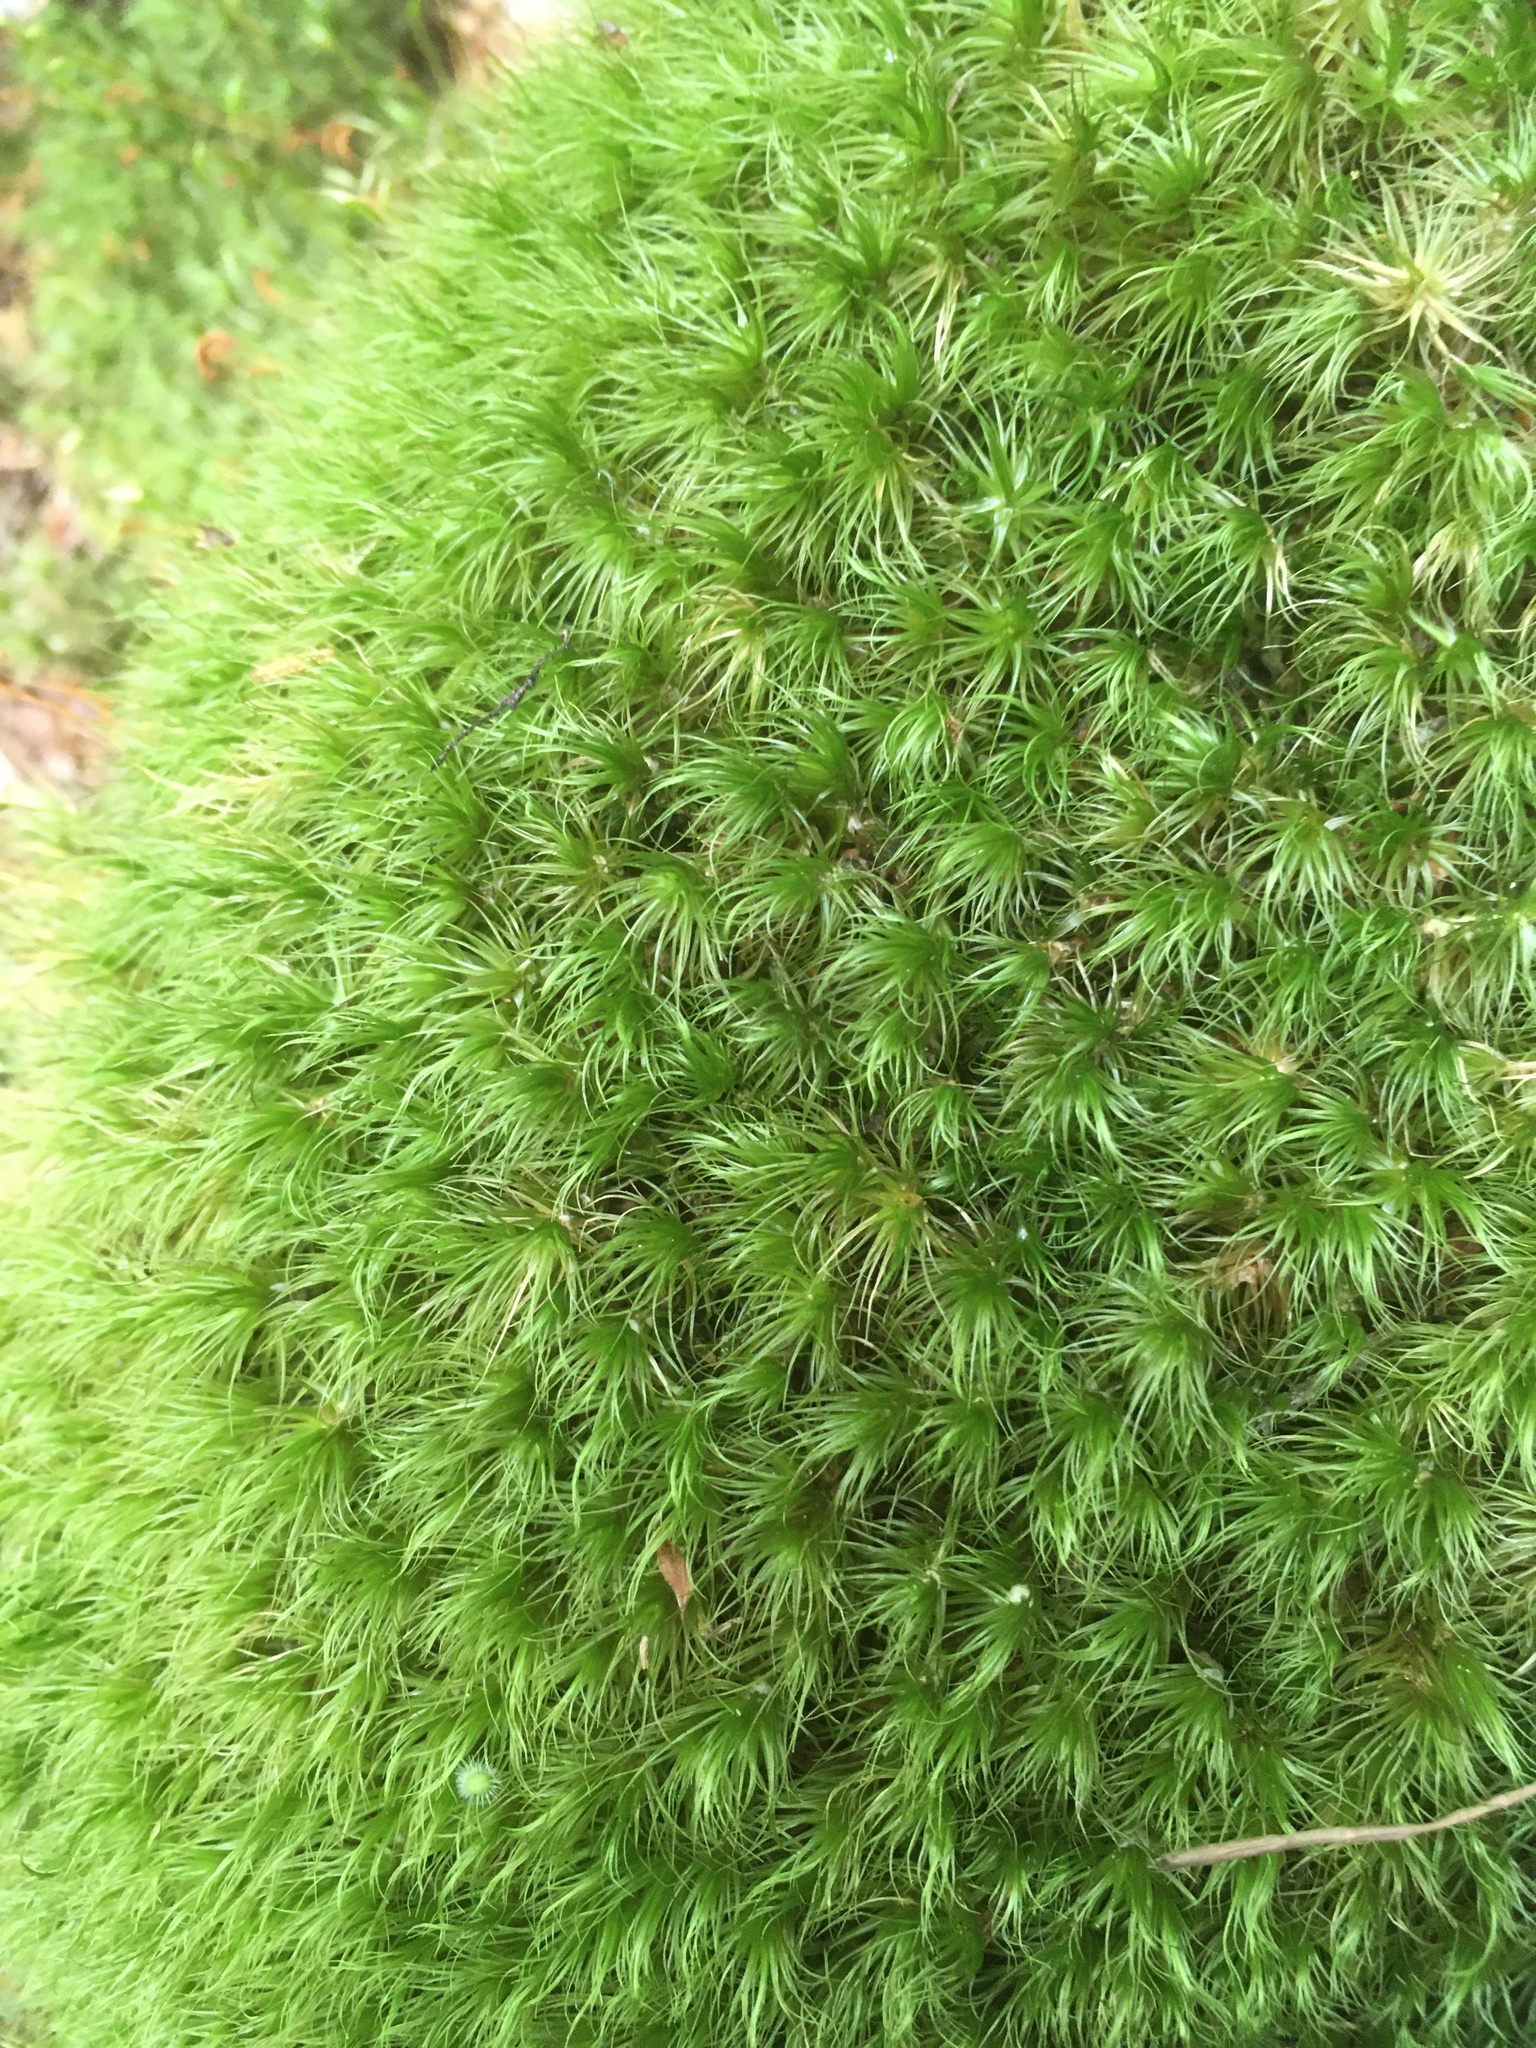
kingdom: Plantae
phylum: Bryophyta
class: Bryopsida
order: Dicranales
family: Dicranaceae
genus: Dicranum
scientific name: Dicranum scoparium
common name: Broom fork-moss
